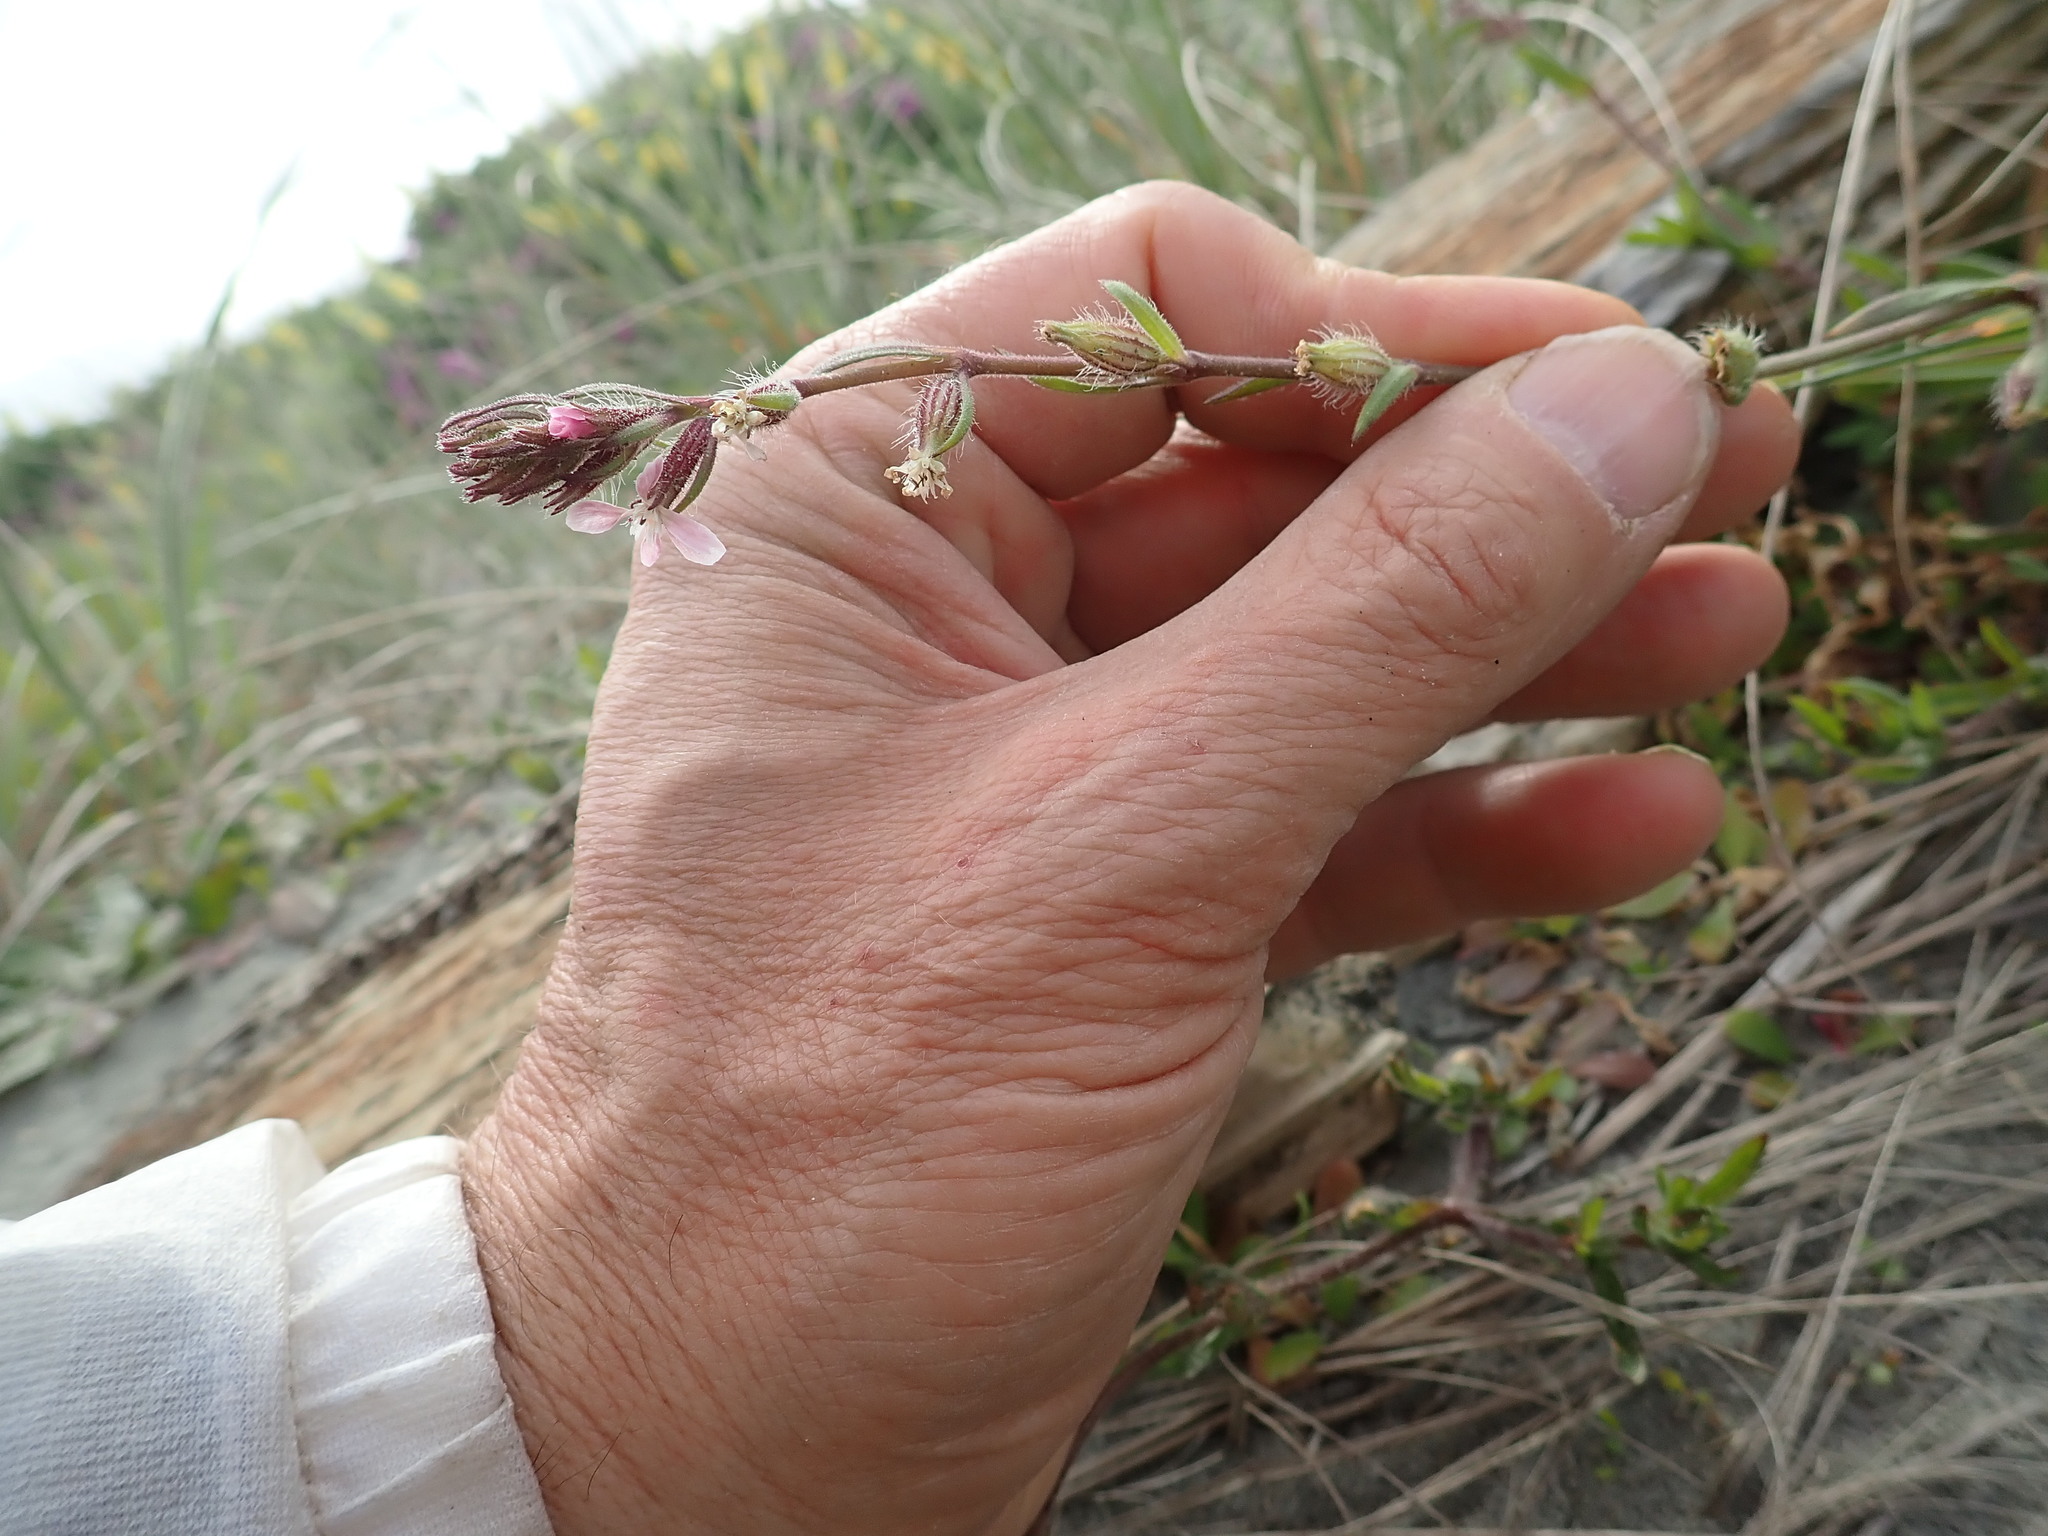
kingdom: Plantae
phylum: Tracheophyta
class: Magnoliopsida
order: Caryophyllales
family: Caryophyllaceae
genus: Silene
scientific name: Silene gallica
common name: Small-flowered catchfly
